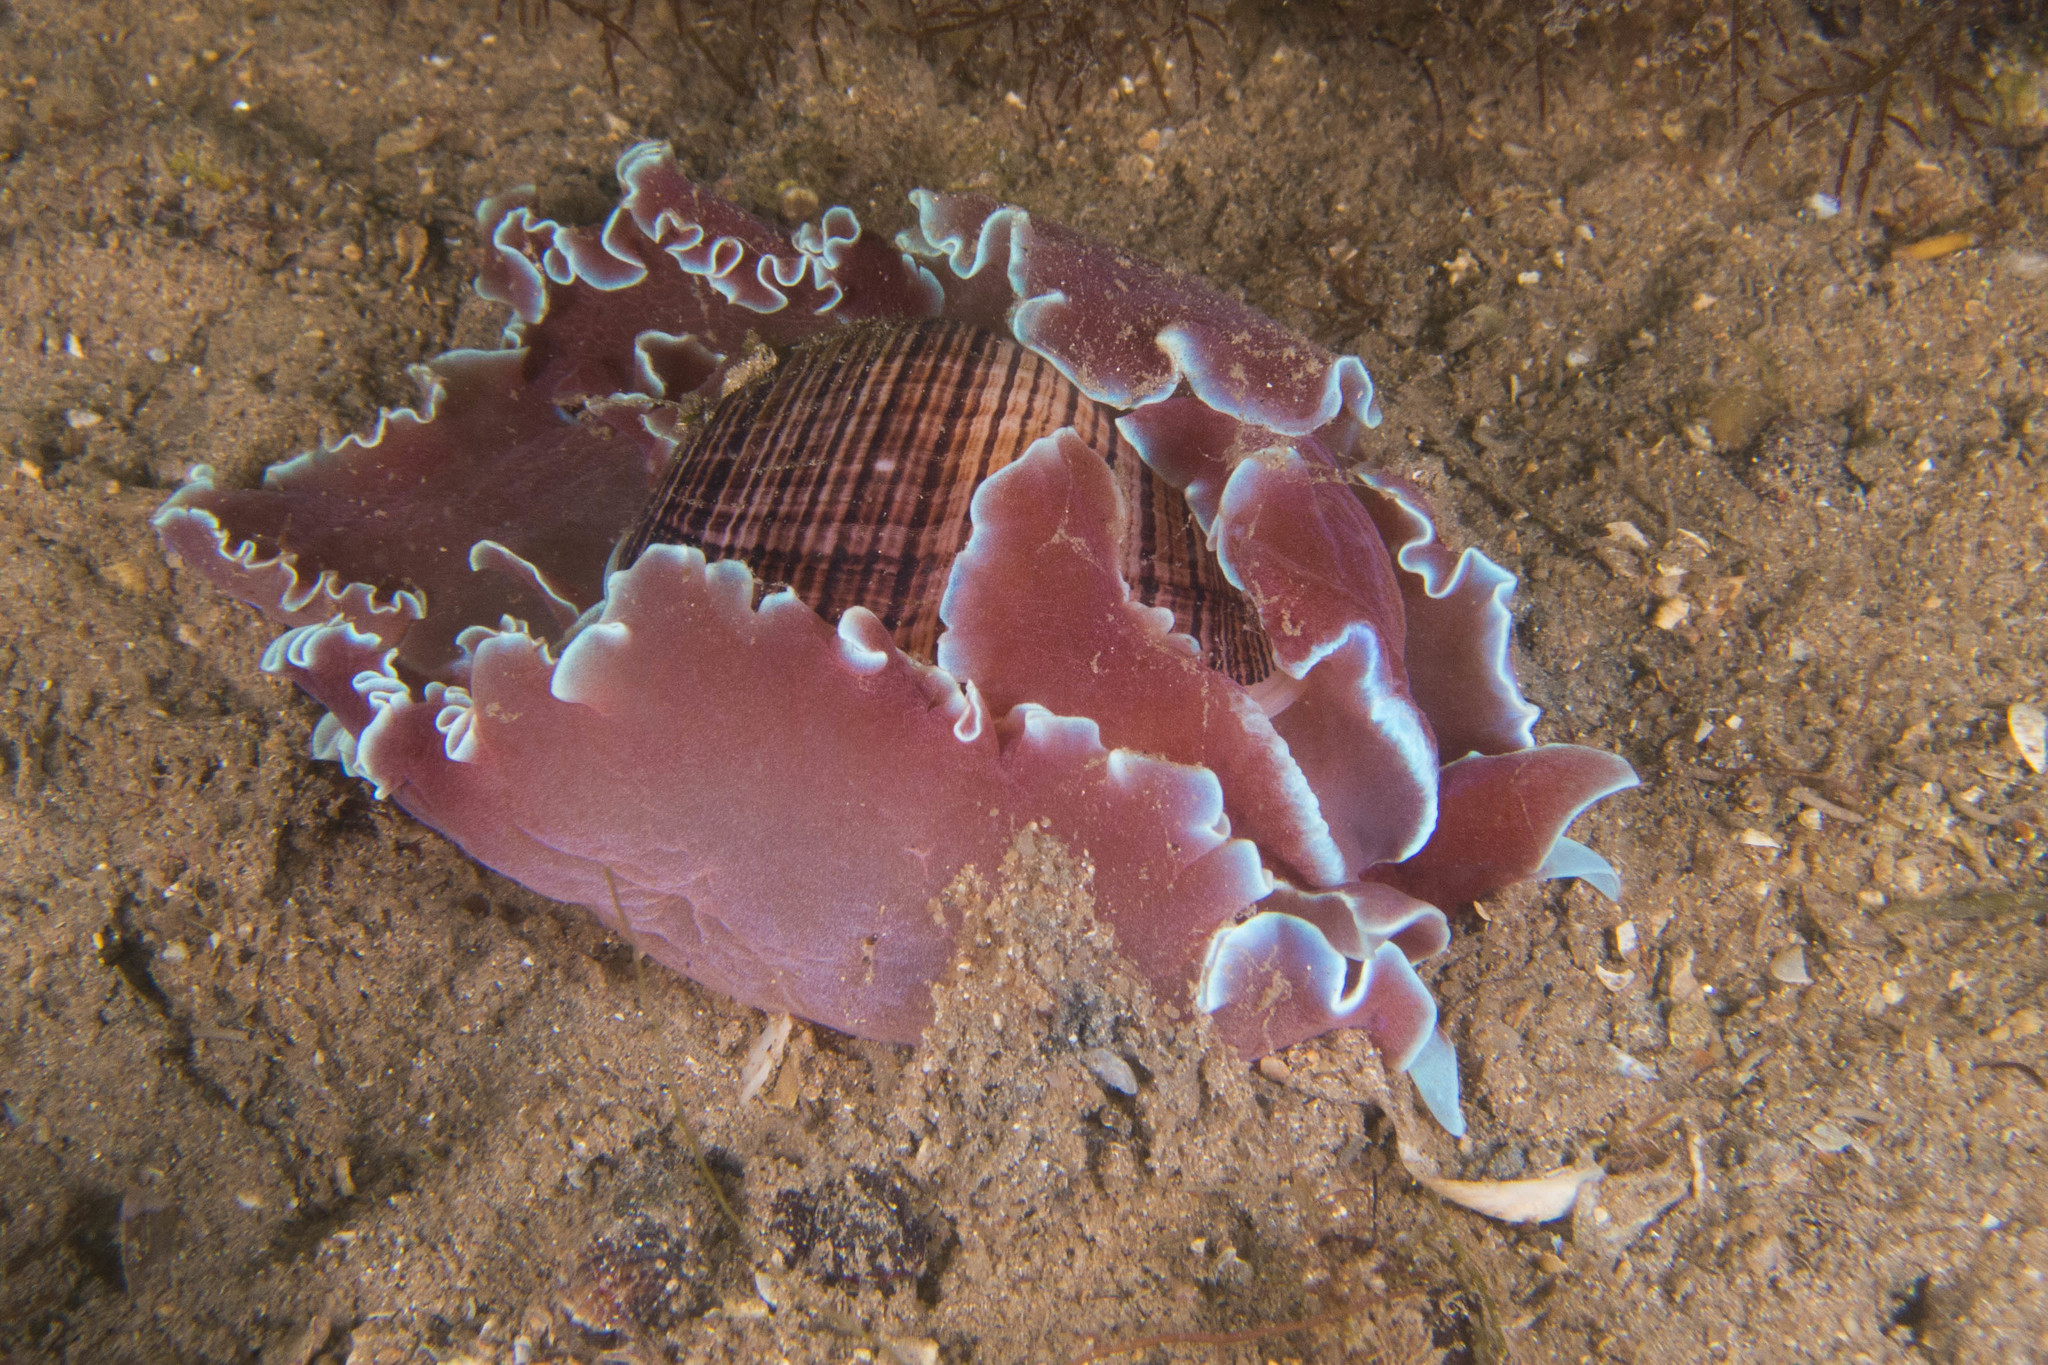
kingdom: Animalia
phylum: Mollusca
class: Gastropoda
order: Cephalaspidea
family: Aplustridae
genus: Hydatina
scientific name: Hydatina physis
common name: Brown-line paperbubble
